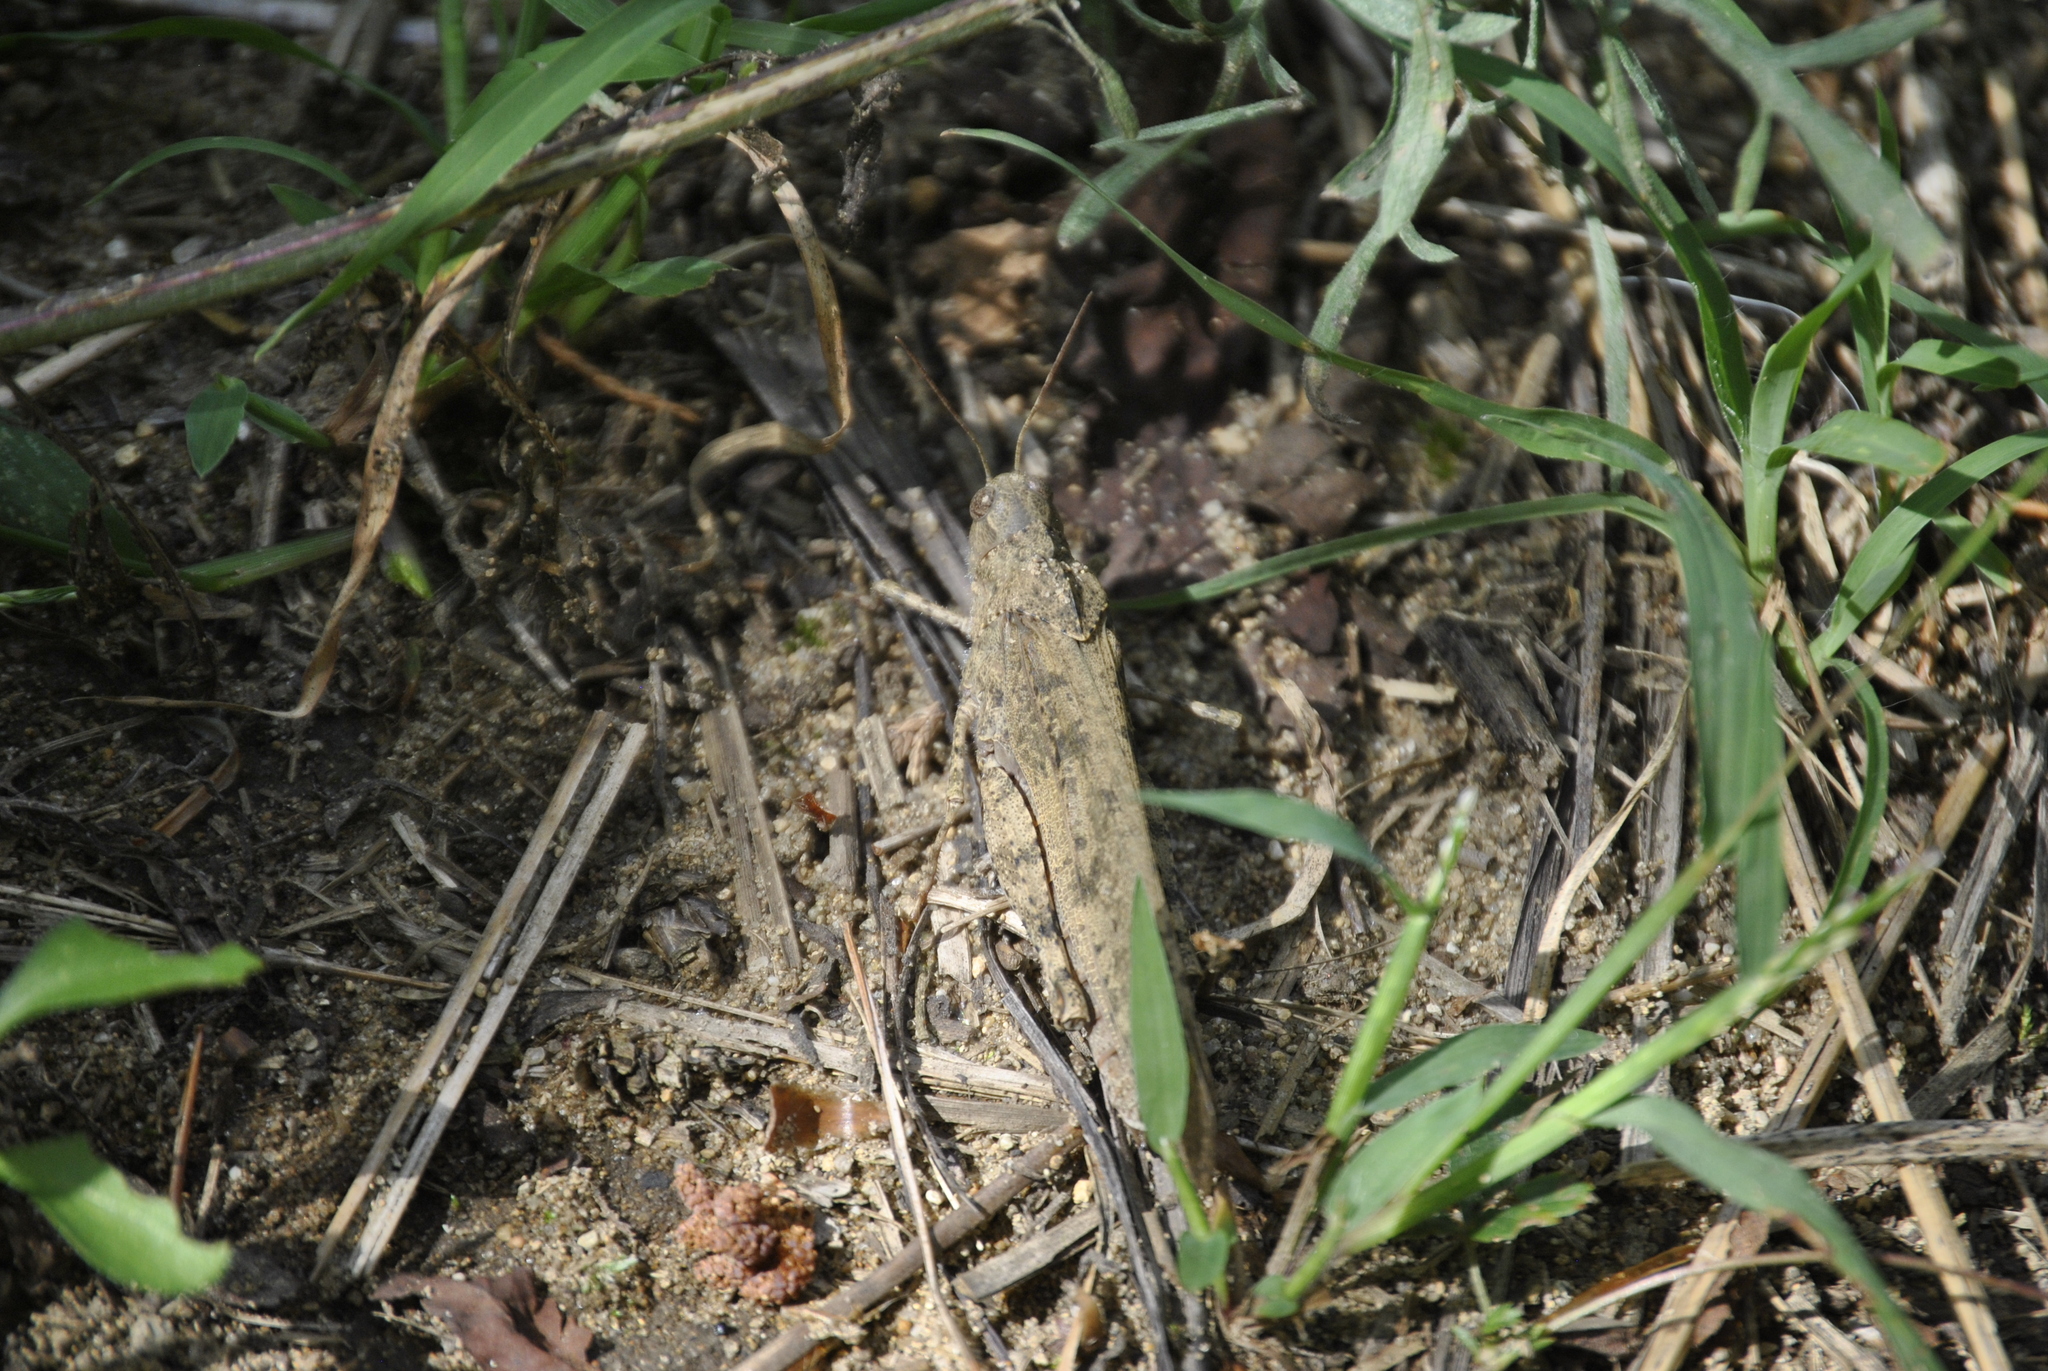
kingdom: Animalia
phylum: Arthropoda
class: Insecta
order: Orthoptera
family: Acrididae
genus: Dissosteira
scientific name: Dissosteira carolina
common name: Carolina grasshopper
